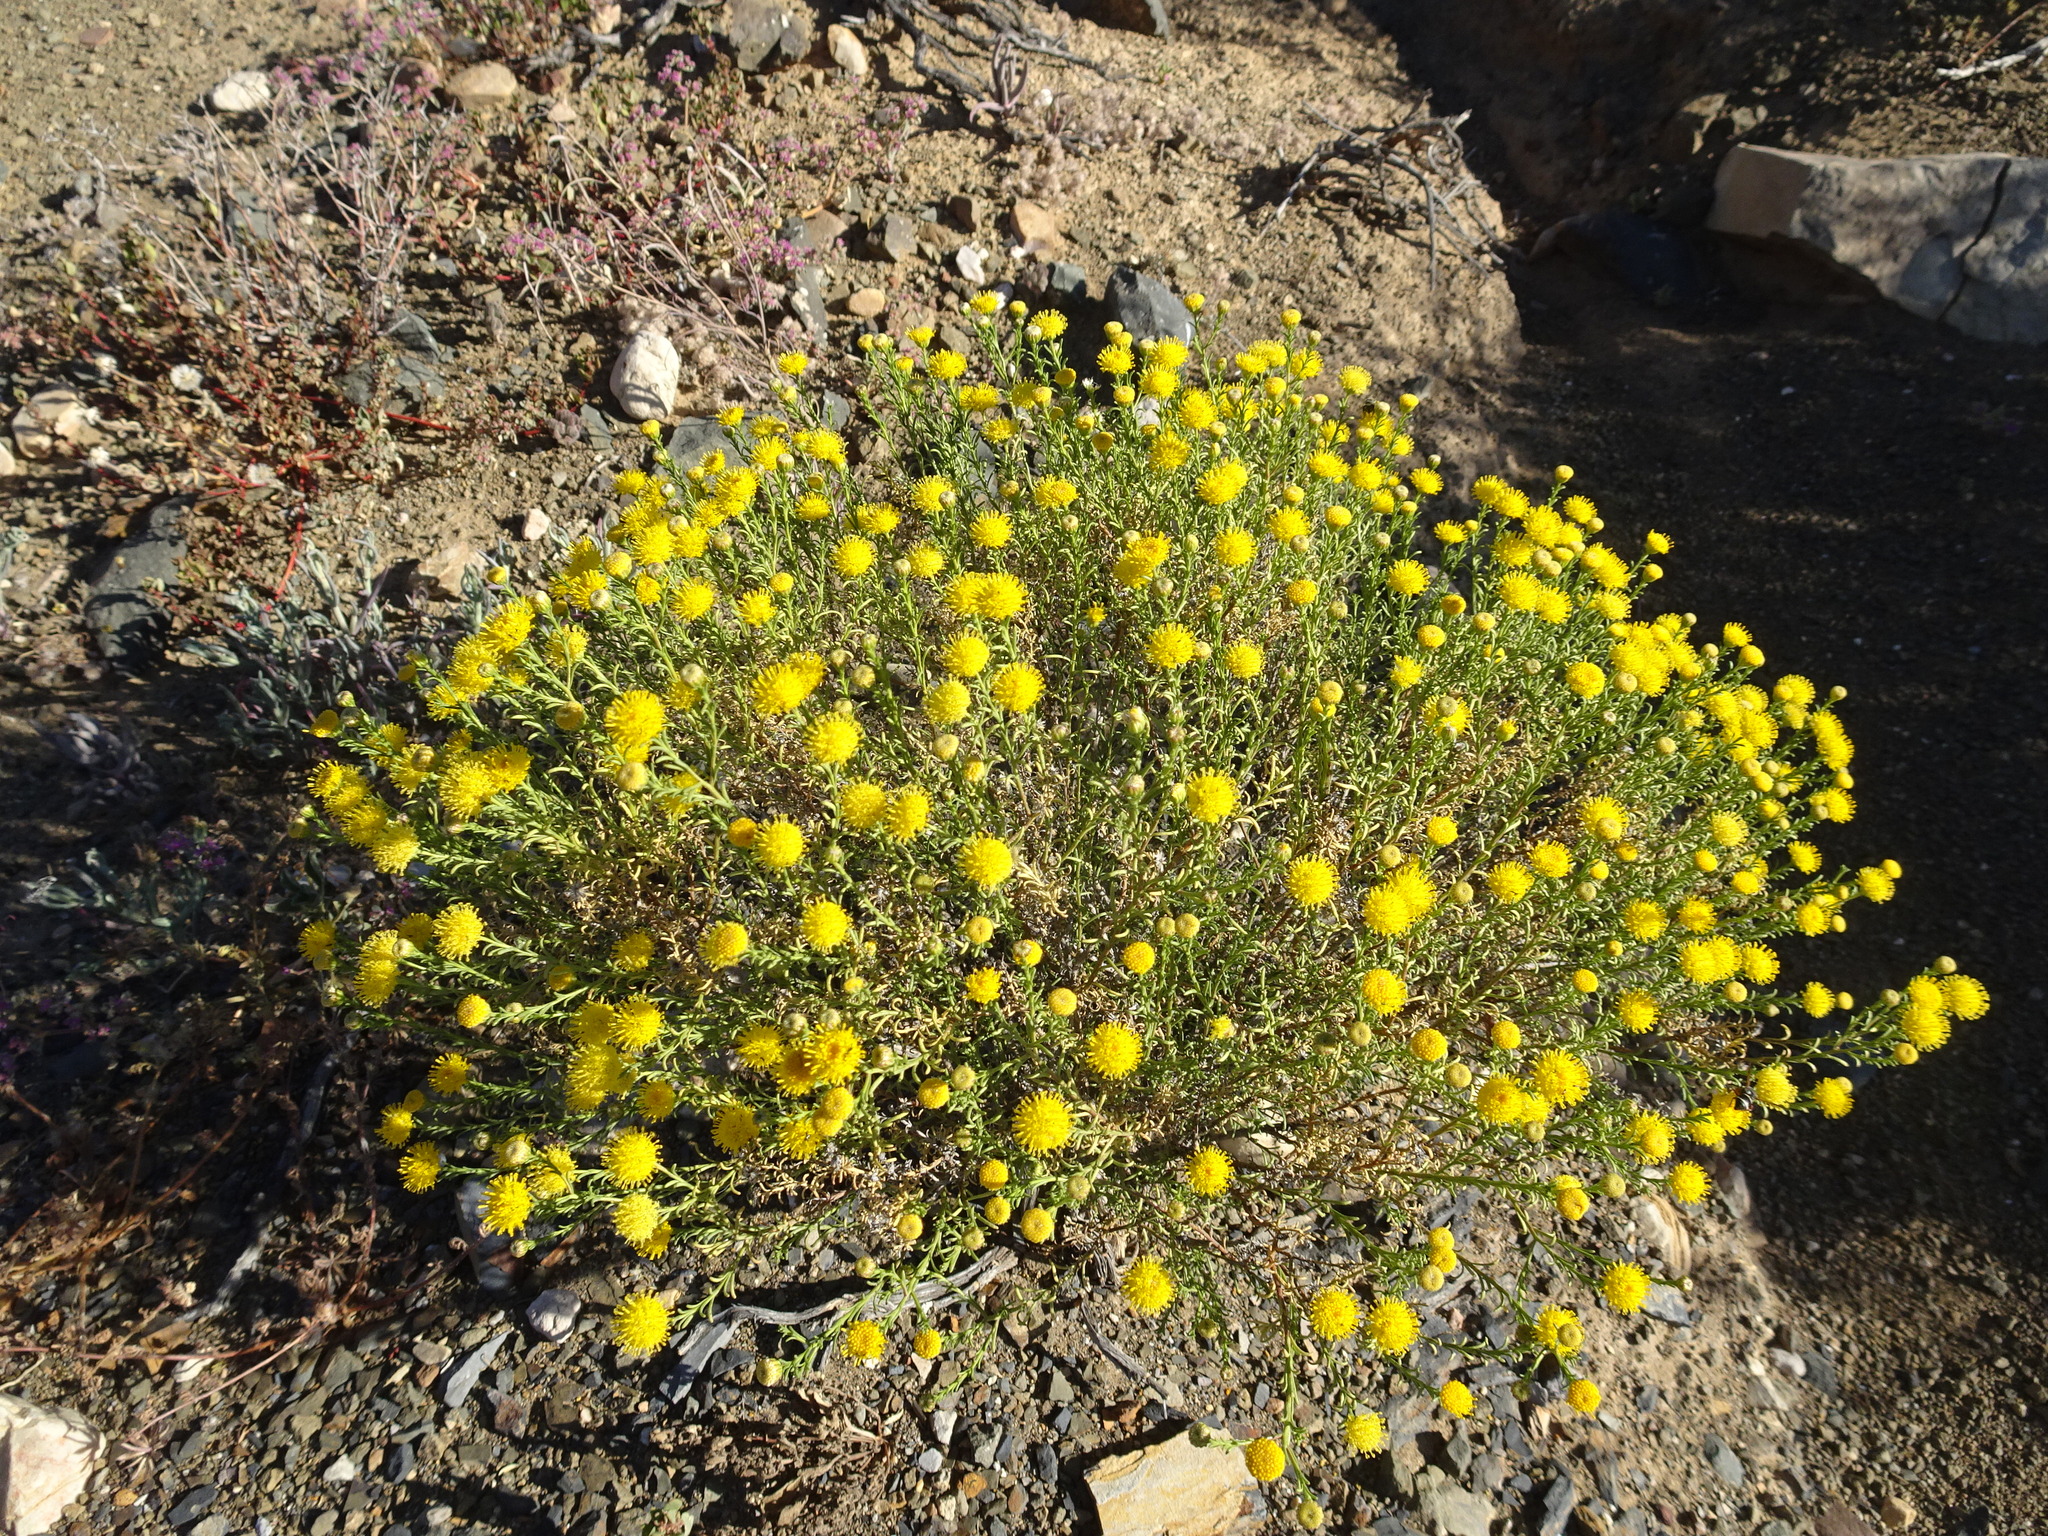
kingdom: Plantae
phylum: Tracheophyta
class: Magnoliopsida
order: Asterales
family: Asteraceae
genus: Chrysocoma
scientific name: Chrysocoma ciliata
